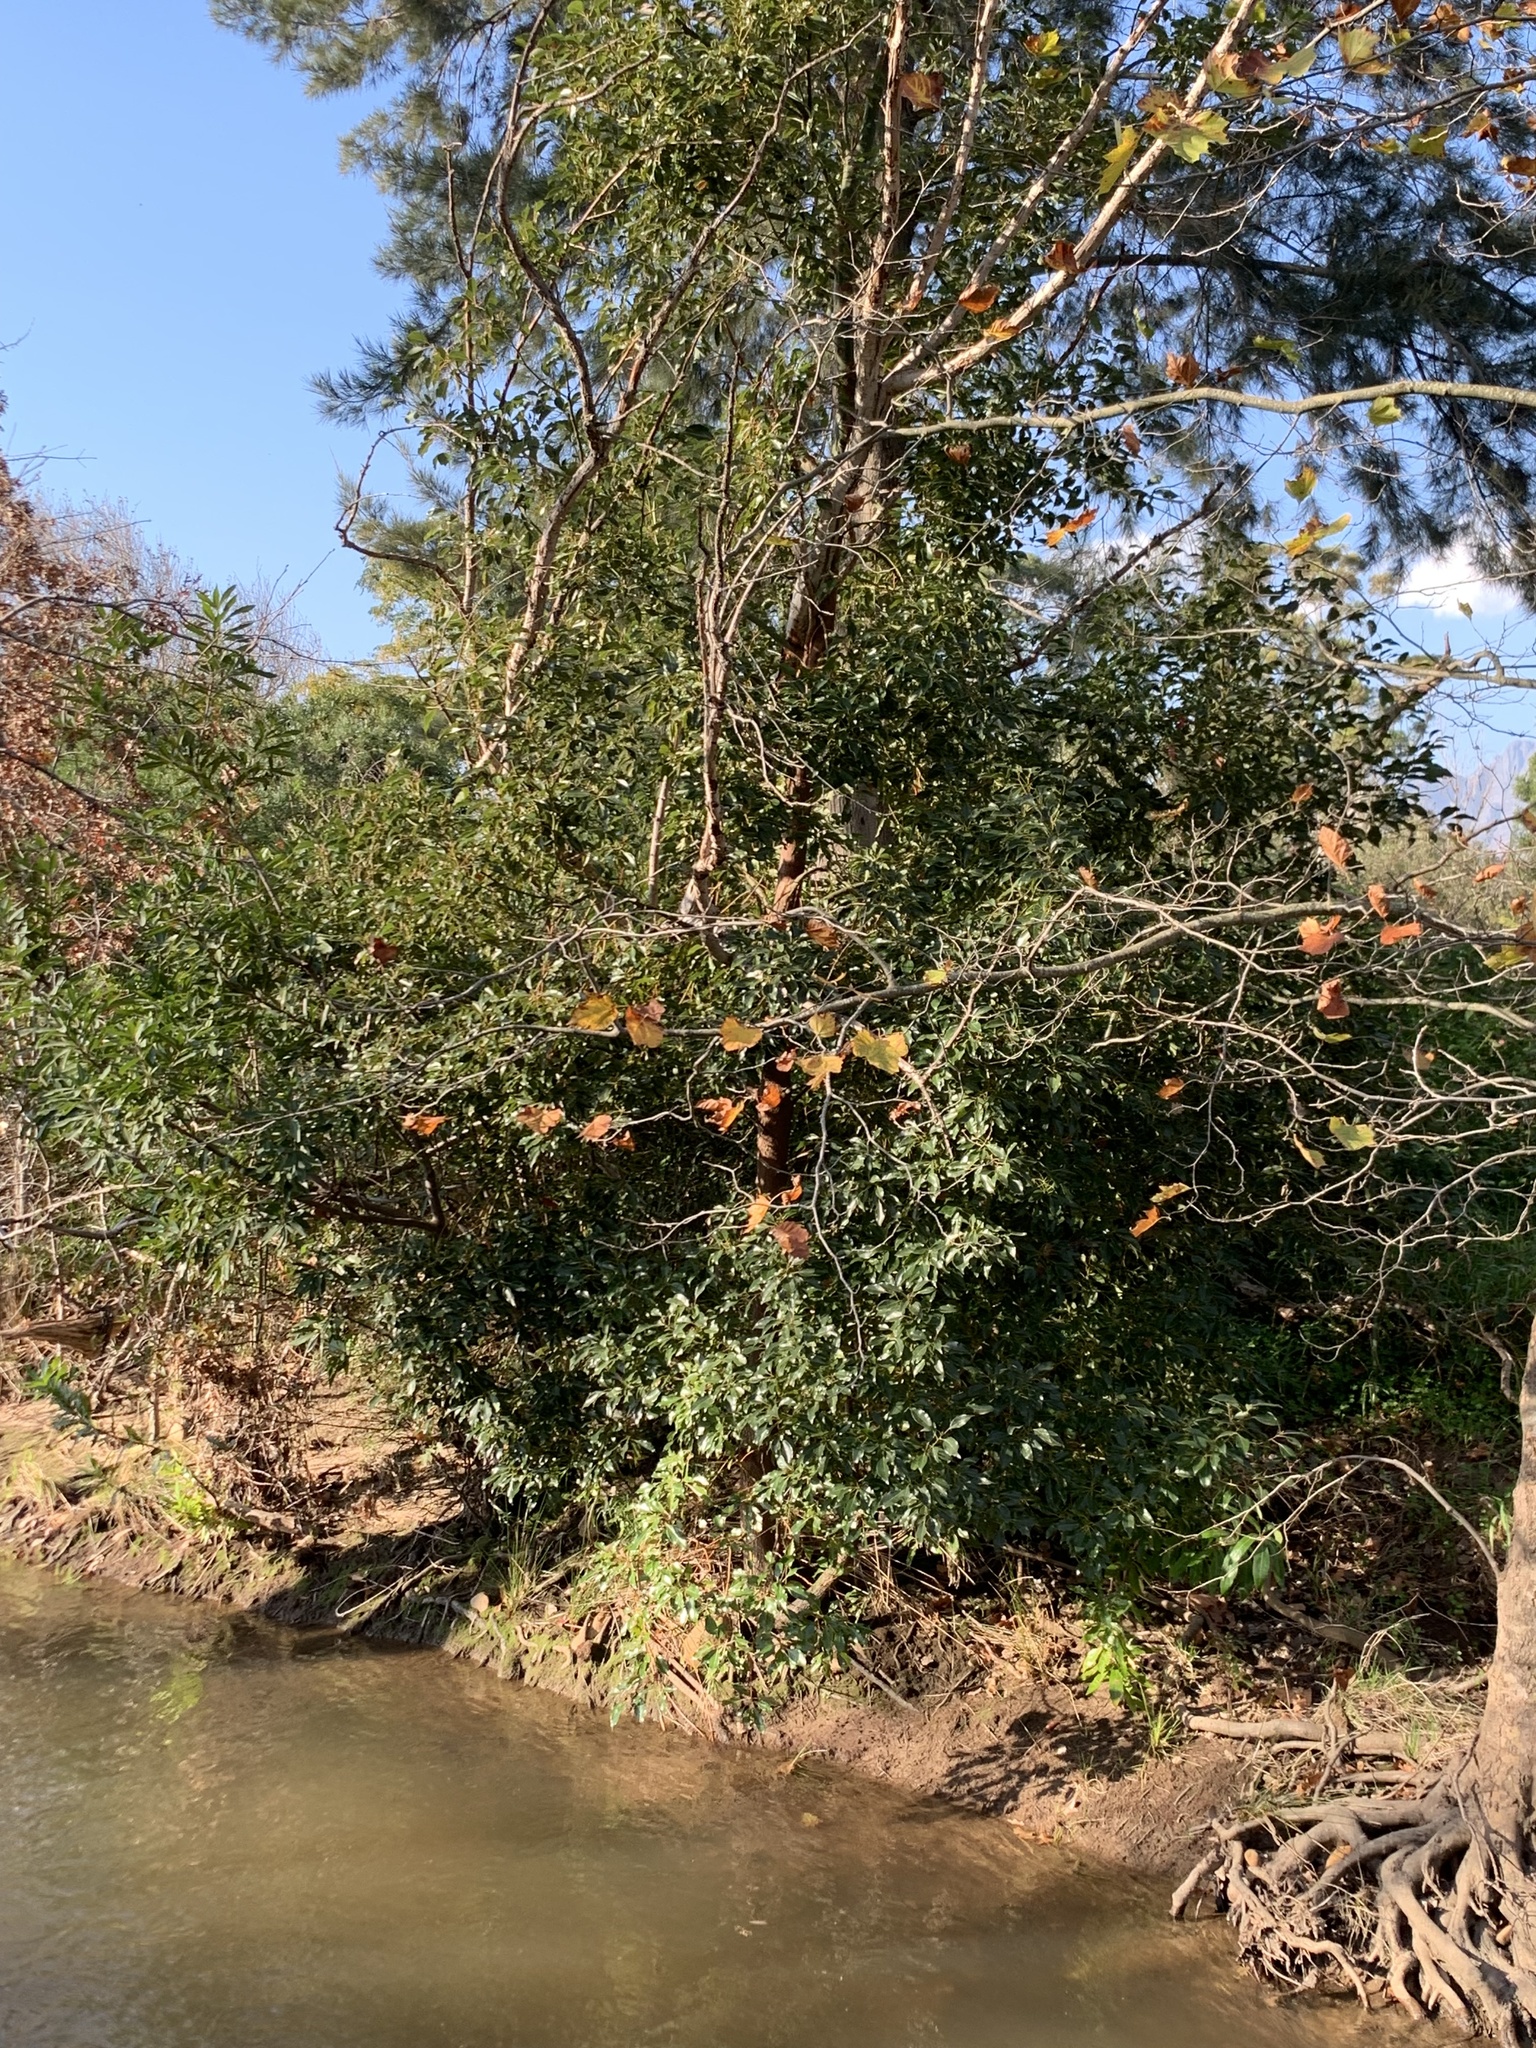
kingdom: Plantae
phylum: Tracheophyta
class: Magnoliopsida
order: Laurales
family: Lauraceae
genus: Cinnamomum
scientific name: Cinnamomum camphora
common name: Camphortree
